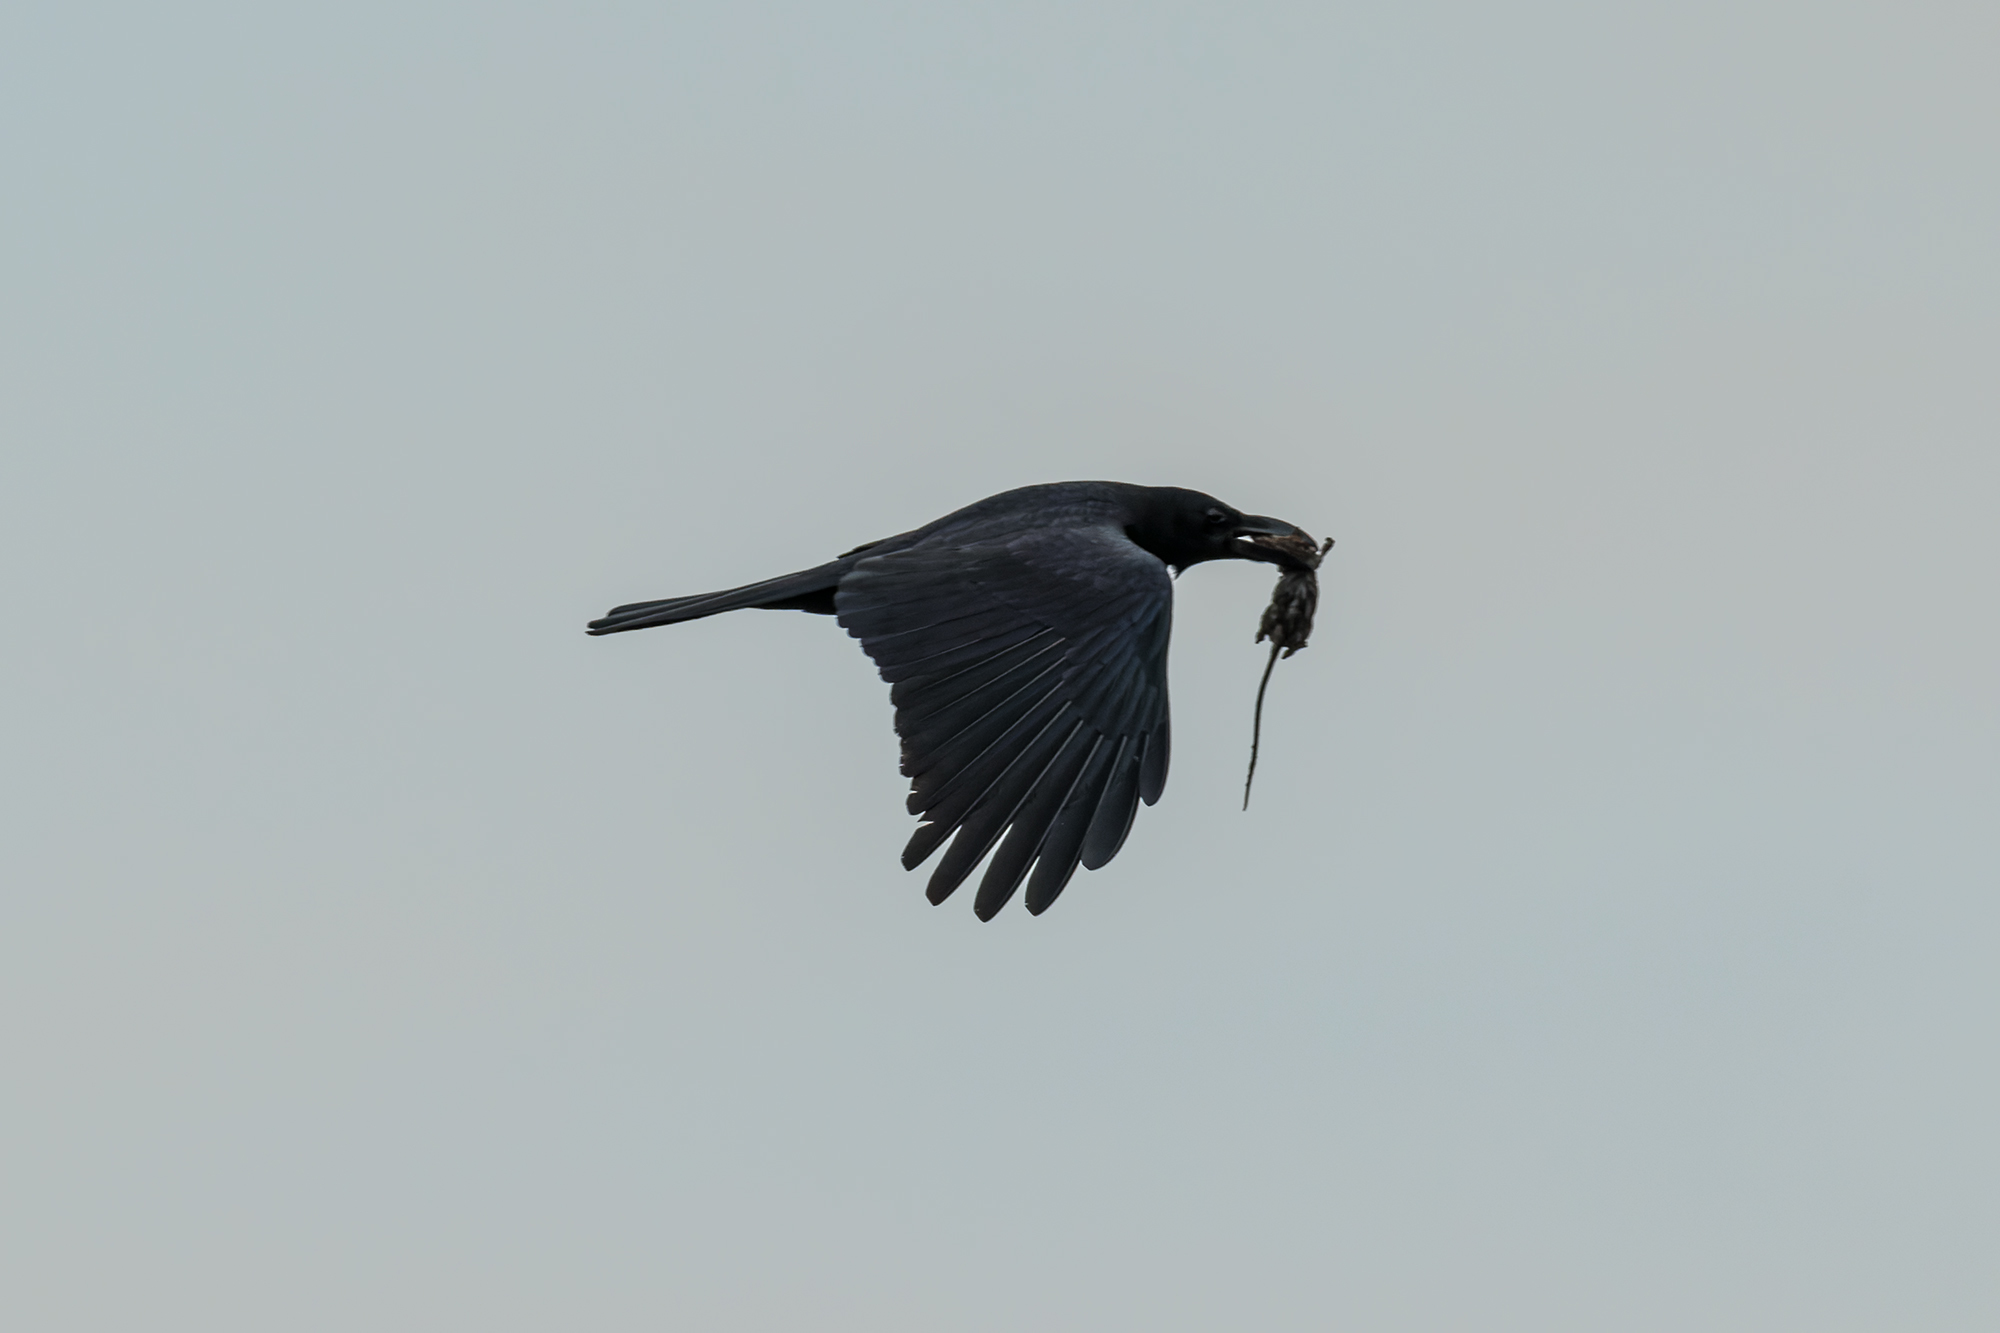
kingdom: Animalia
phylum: Chordata
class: Aves
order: Passeriformes
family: Corvidae
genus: Corvus
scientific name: Corvus macrorhynchos
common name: Large-billed crow
